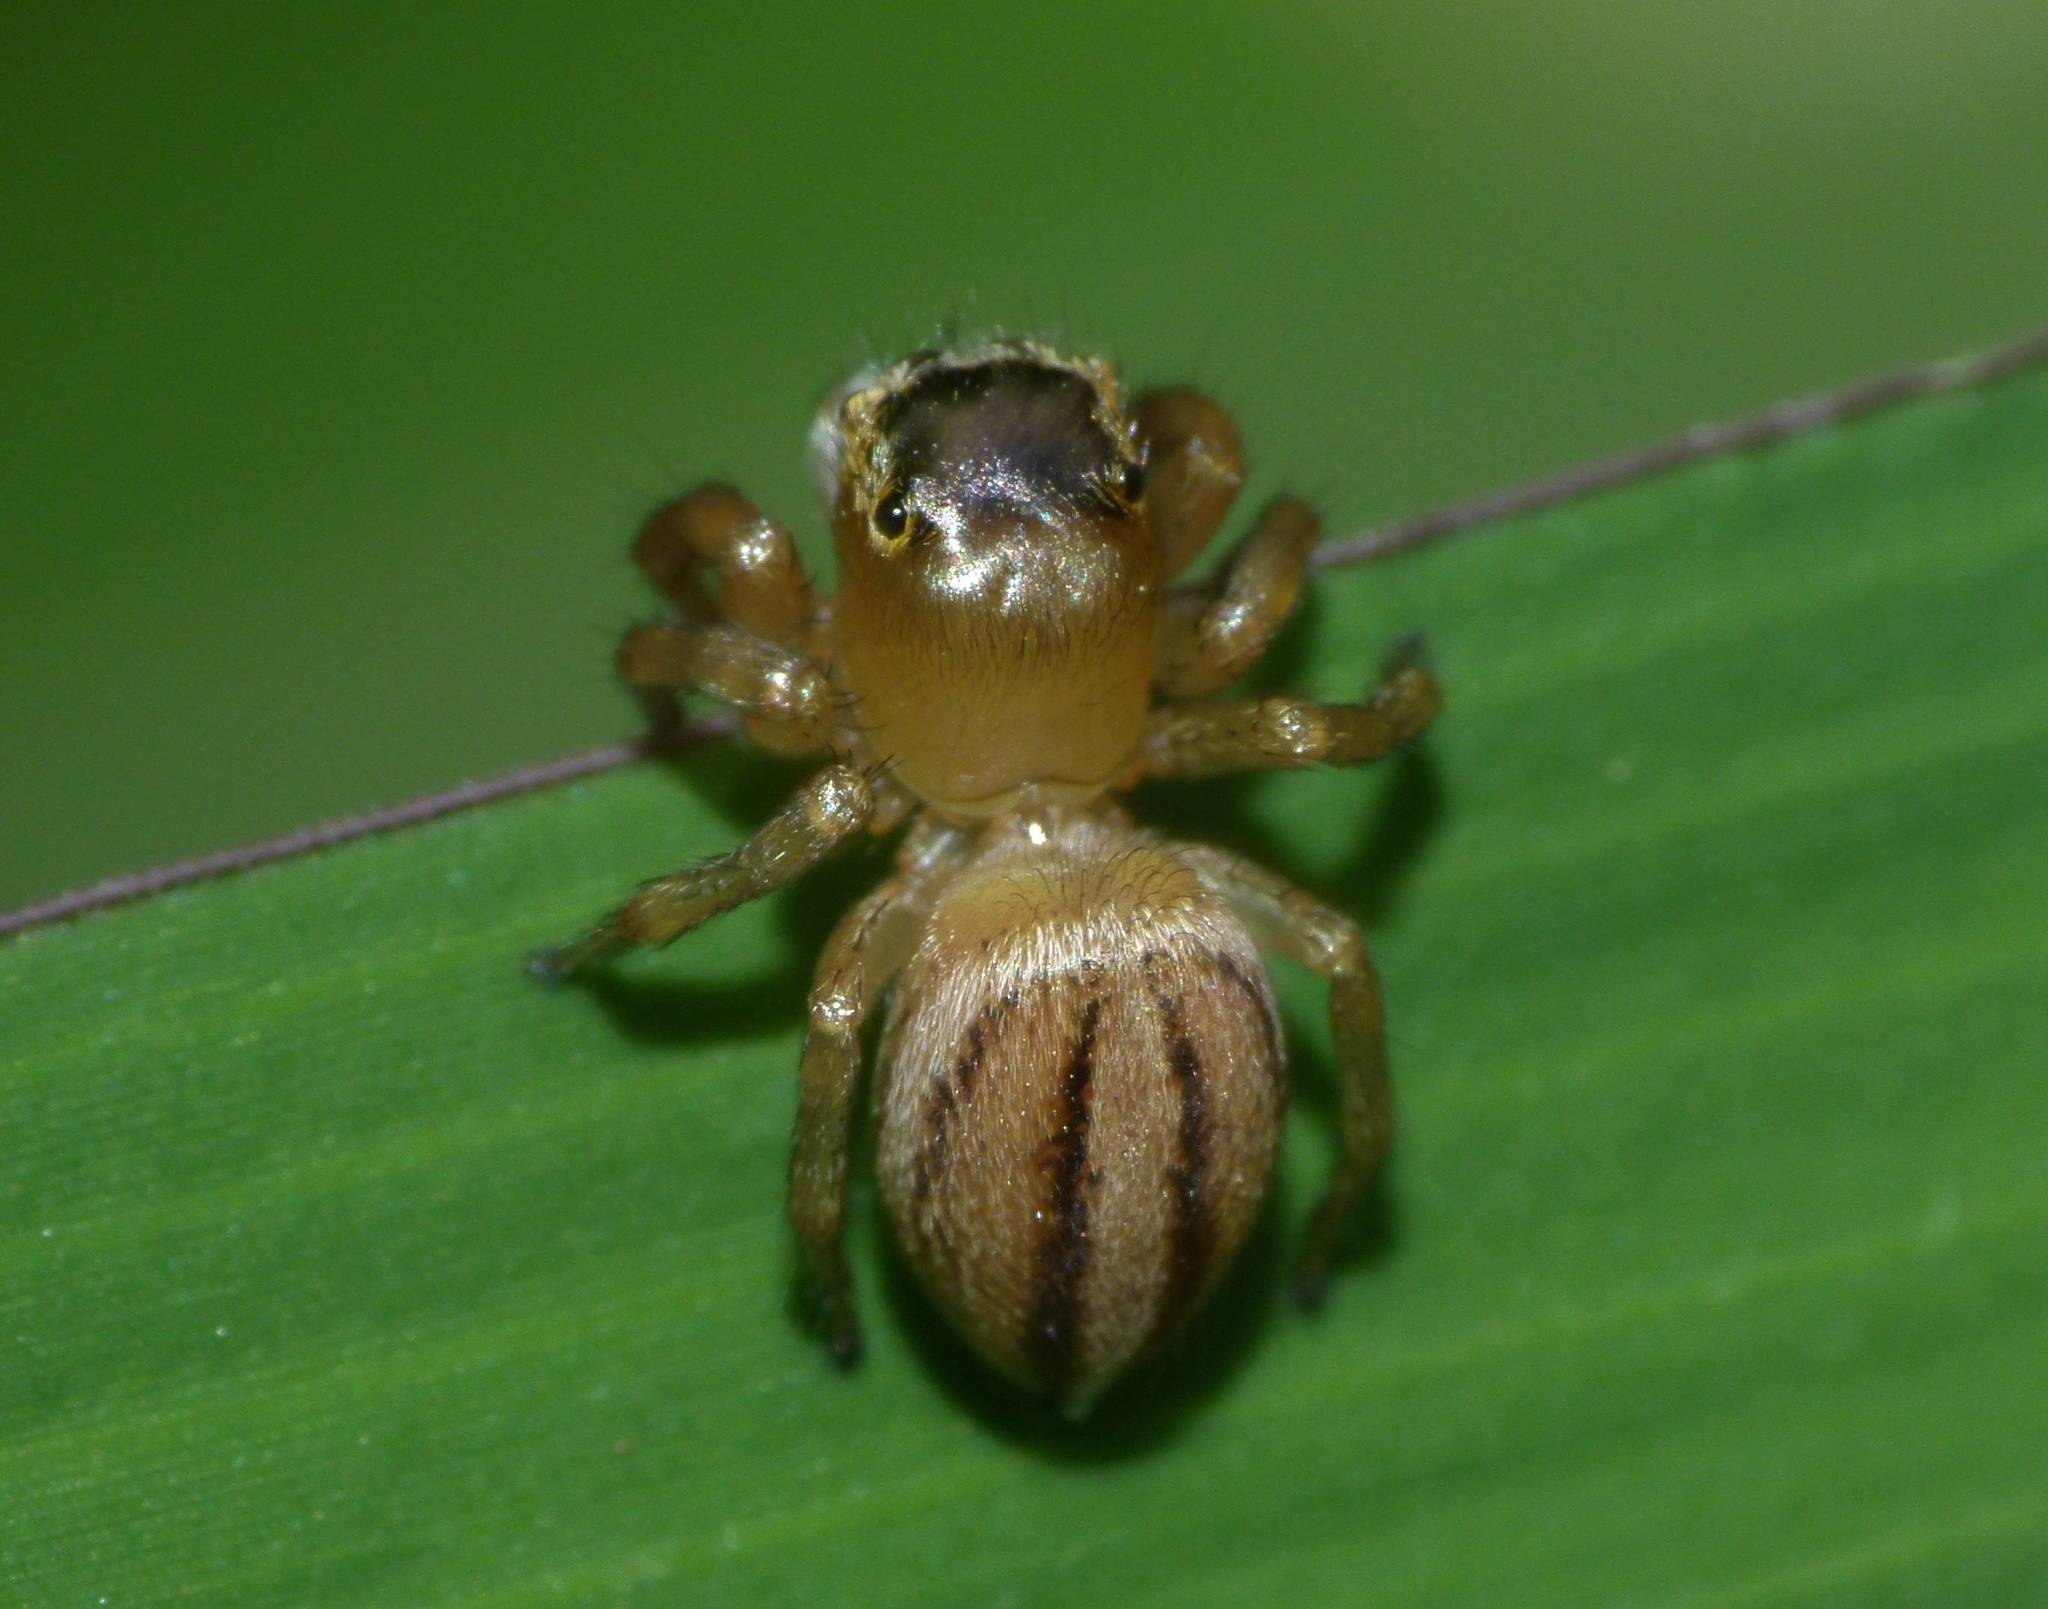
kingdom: Animalia
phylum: Arthropoda
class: Arachnida
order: Araneae
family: Salticidae
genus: Maratus
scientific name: Maratus scutulatus
